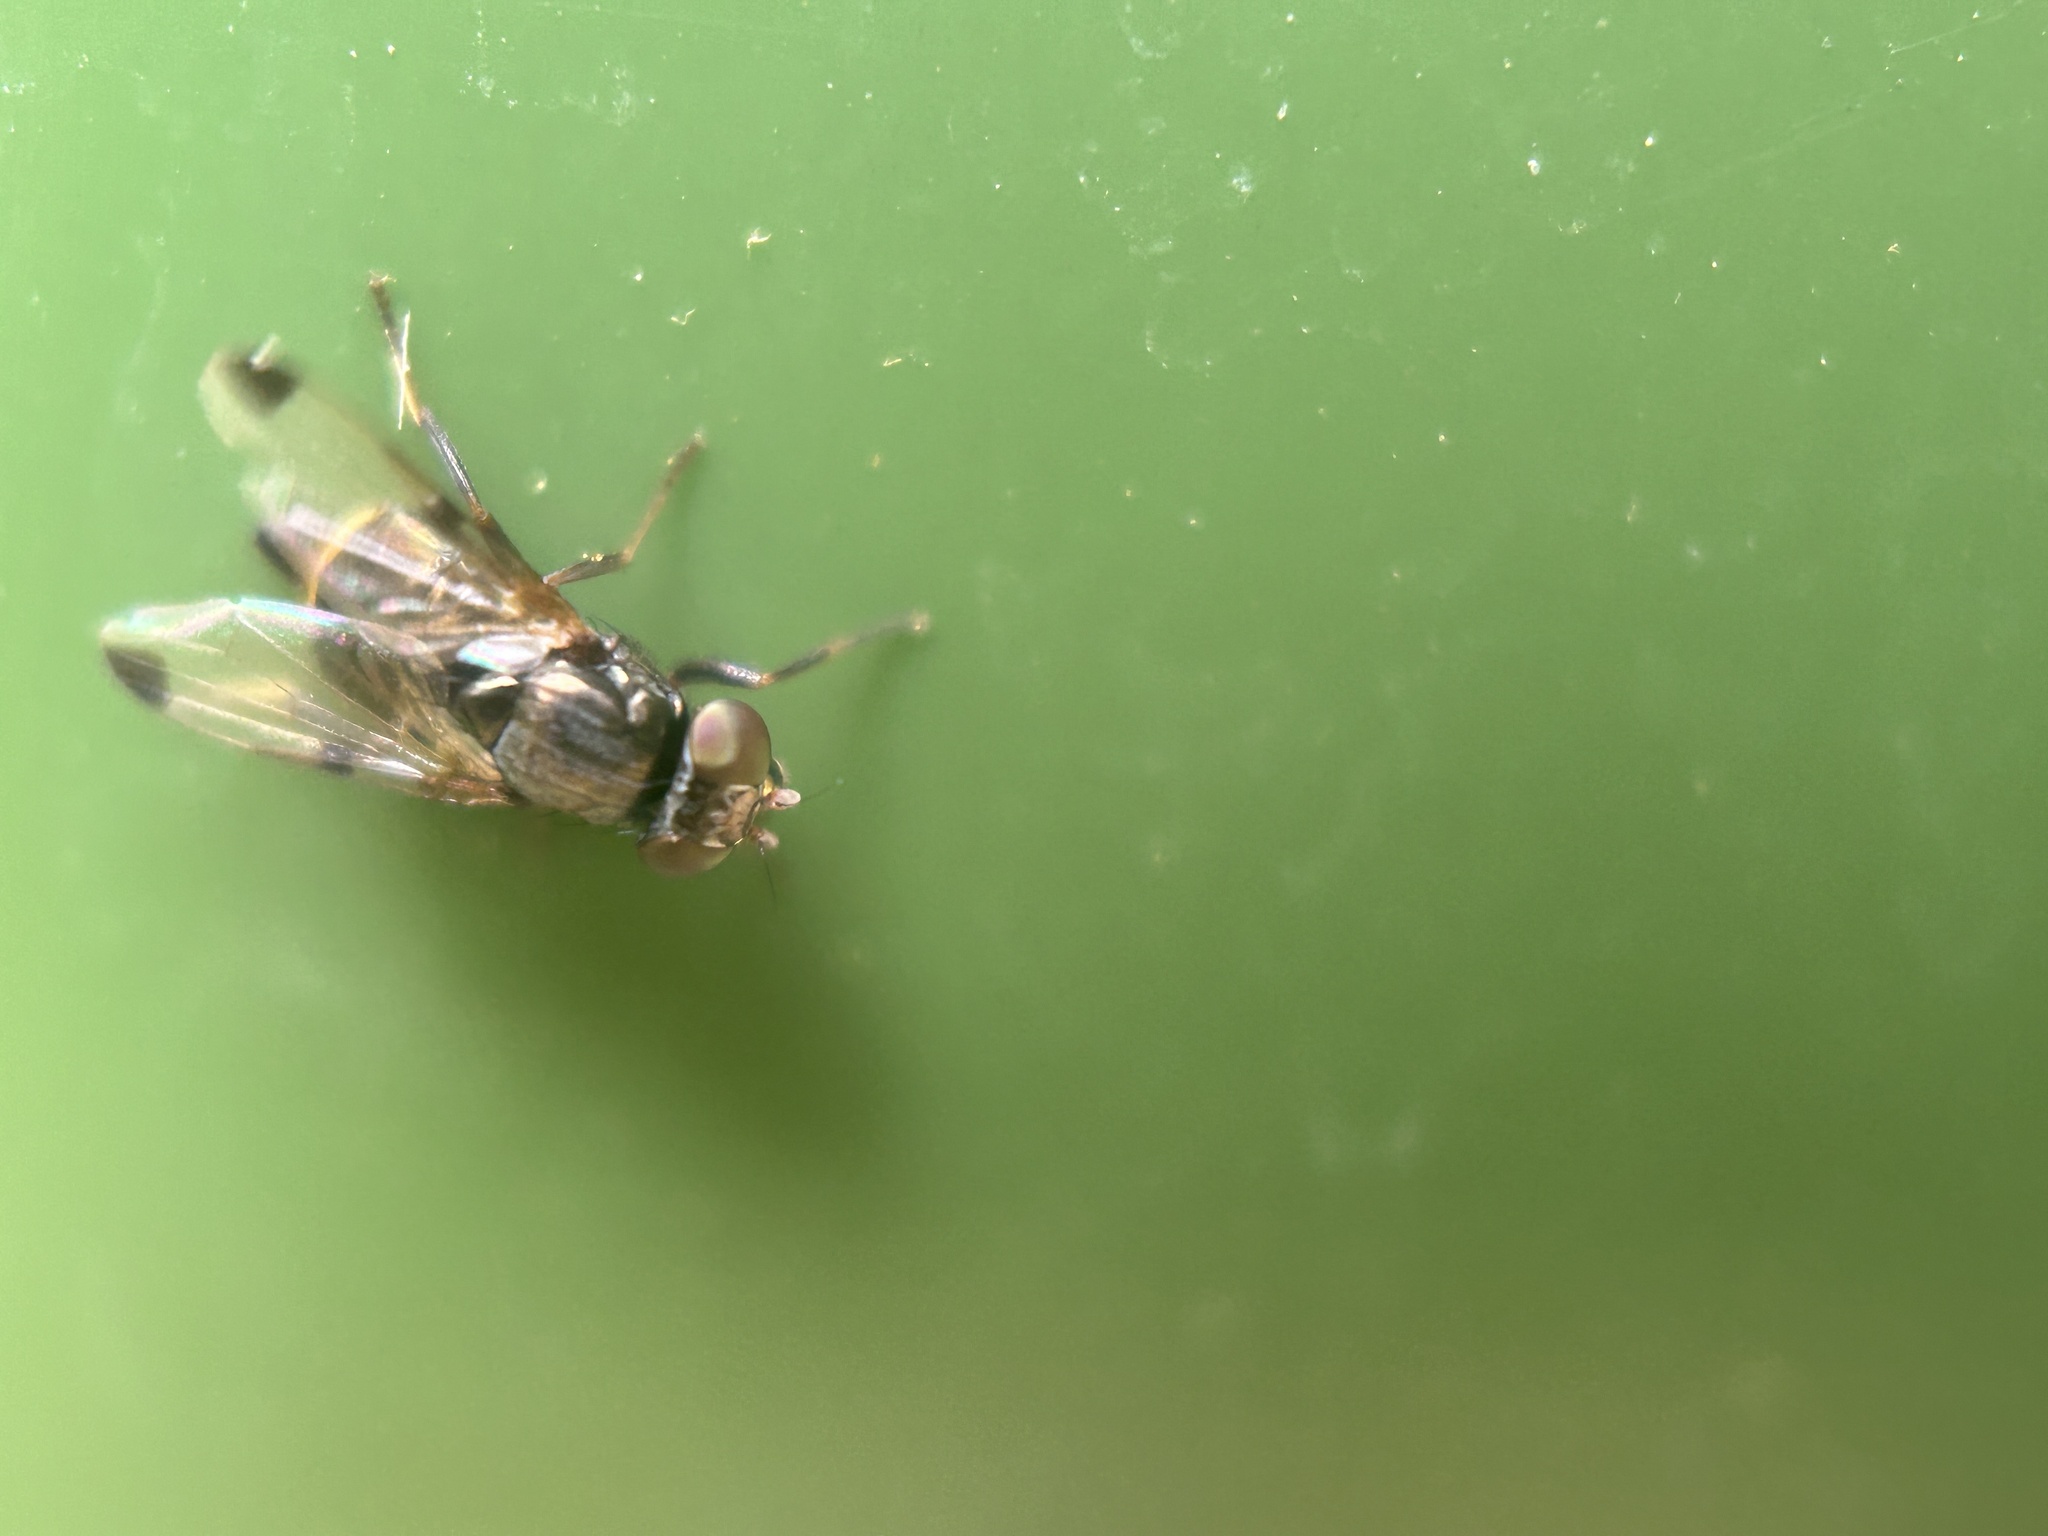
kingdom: Animalia
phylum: Arthropoda
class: Insecta
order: Diptera
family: Ulidiidae
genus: Euxesta
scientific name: Euxesta notata
